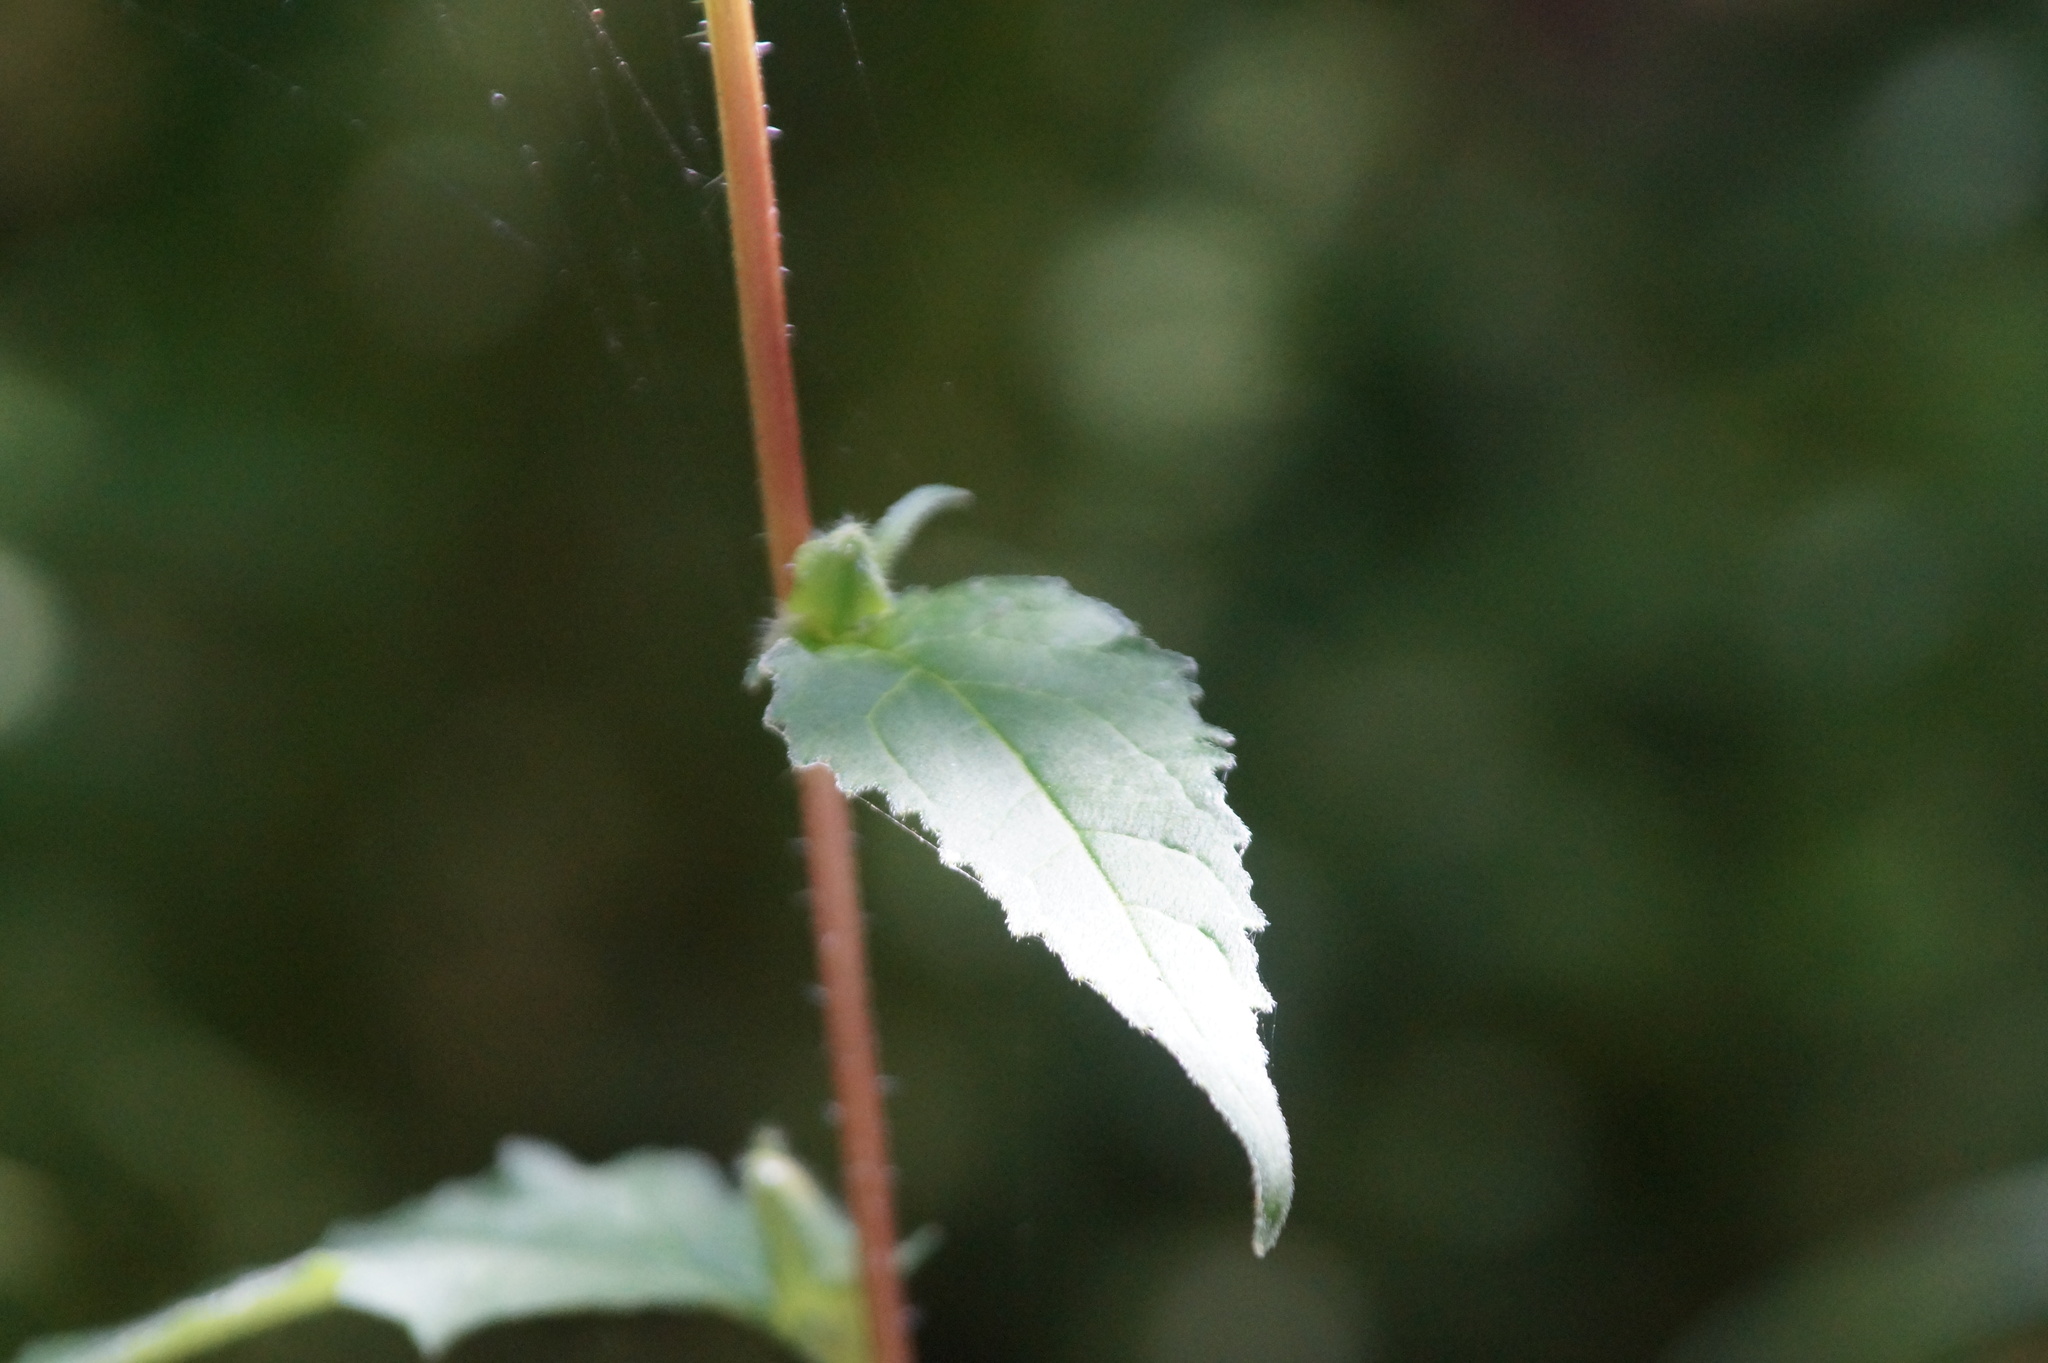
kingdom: Plantae
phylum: Tracheophyta
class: Magnoliopsida
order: Asterales
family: Campanulaceae
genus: Campanula
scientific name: Campanula trachelium
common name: Nettle-leaved bellflower
